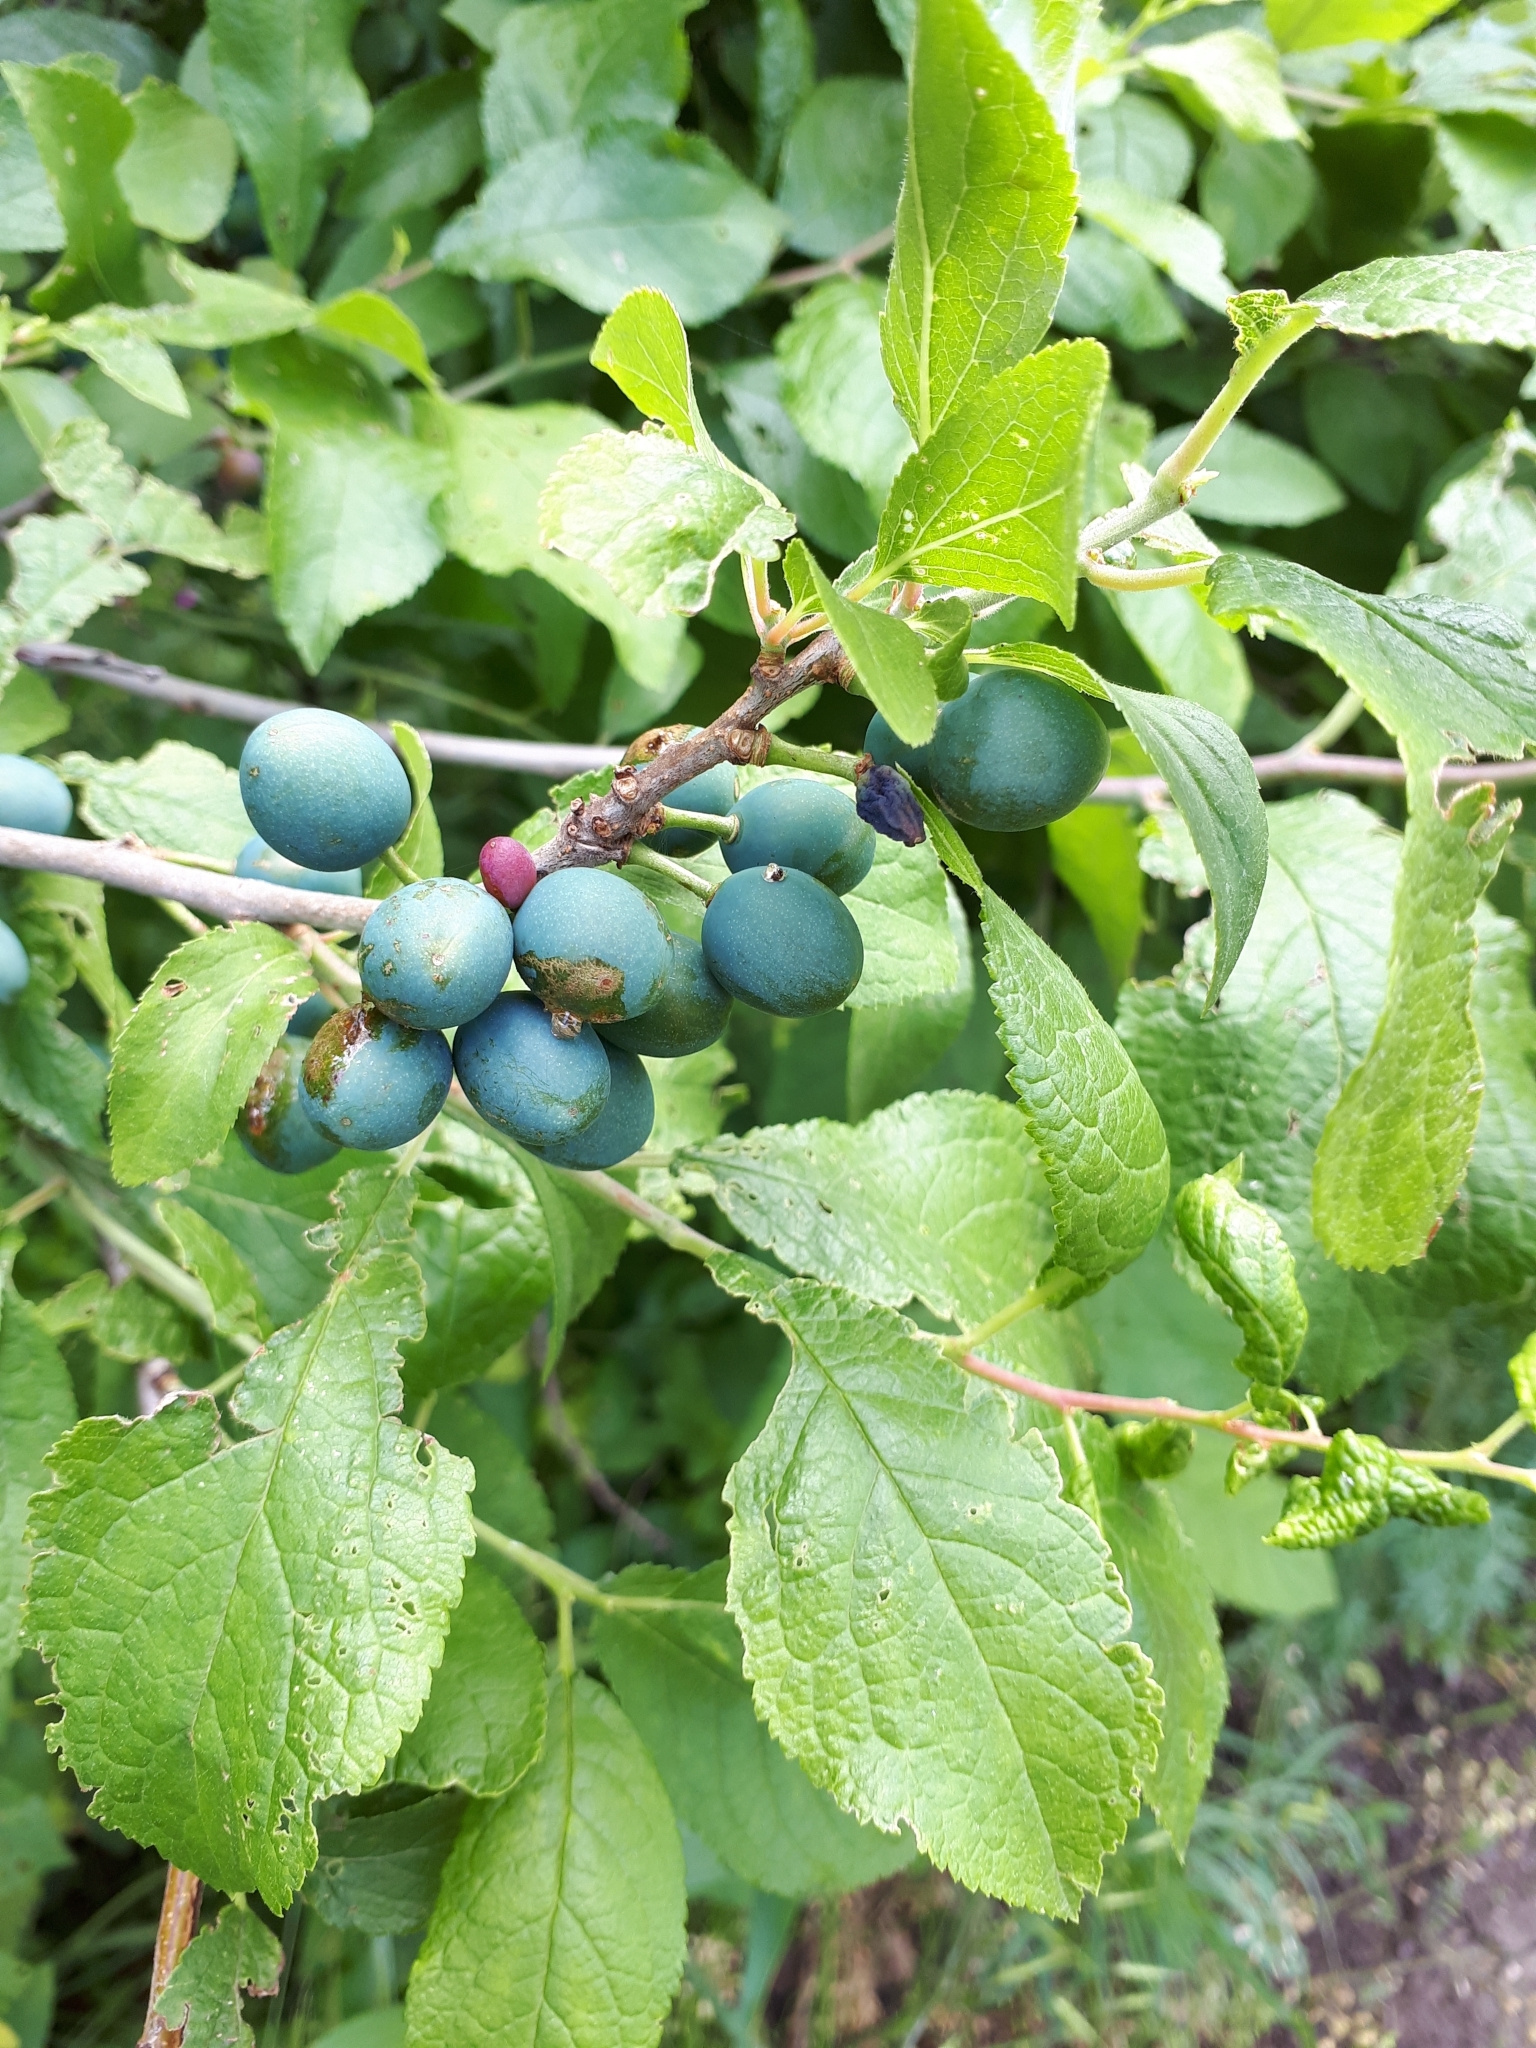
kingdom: Plantae
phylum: Tracheophyta
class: Magnoliopsida
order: Rosales
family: Rosaceae
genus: Prunus
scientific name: Prunus spinosa
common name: Blackthorn
